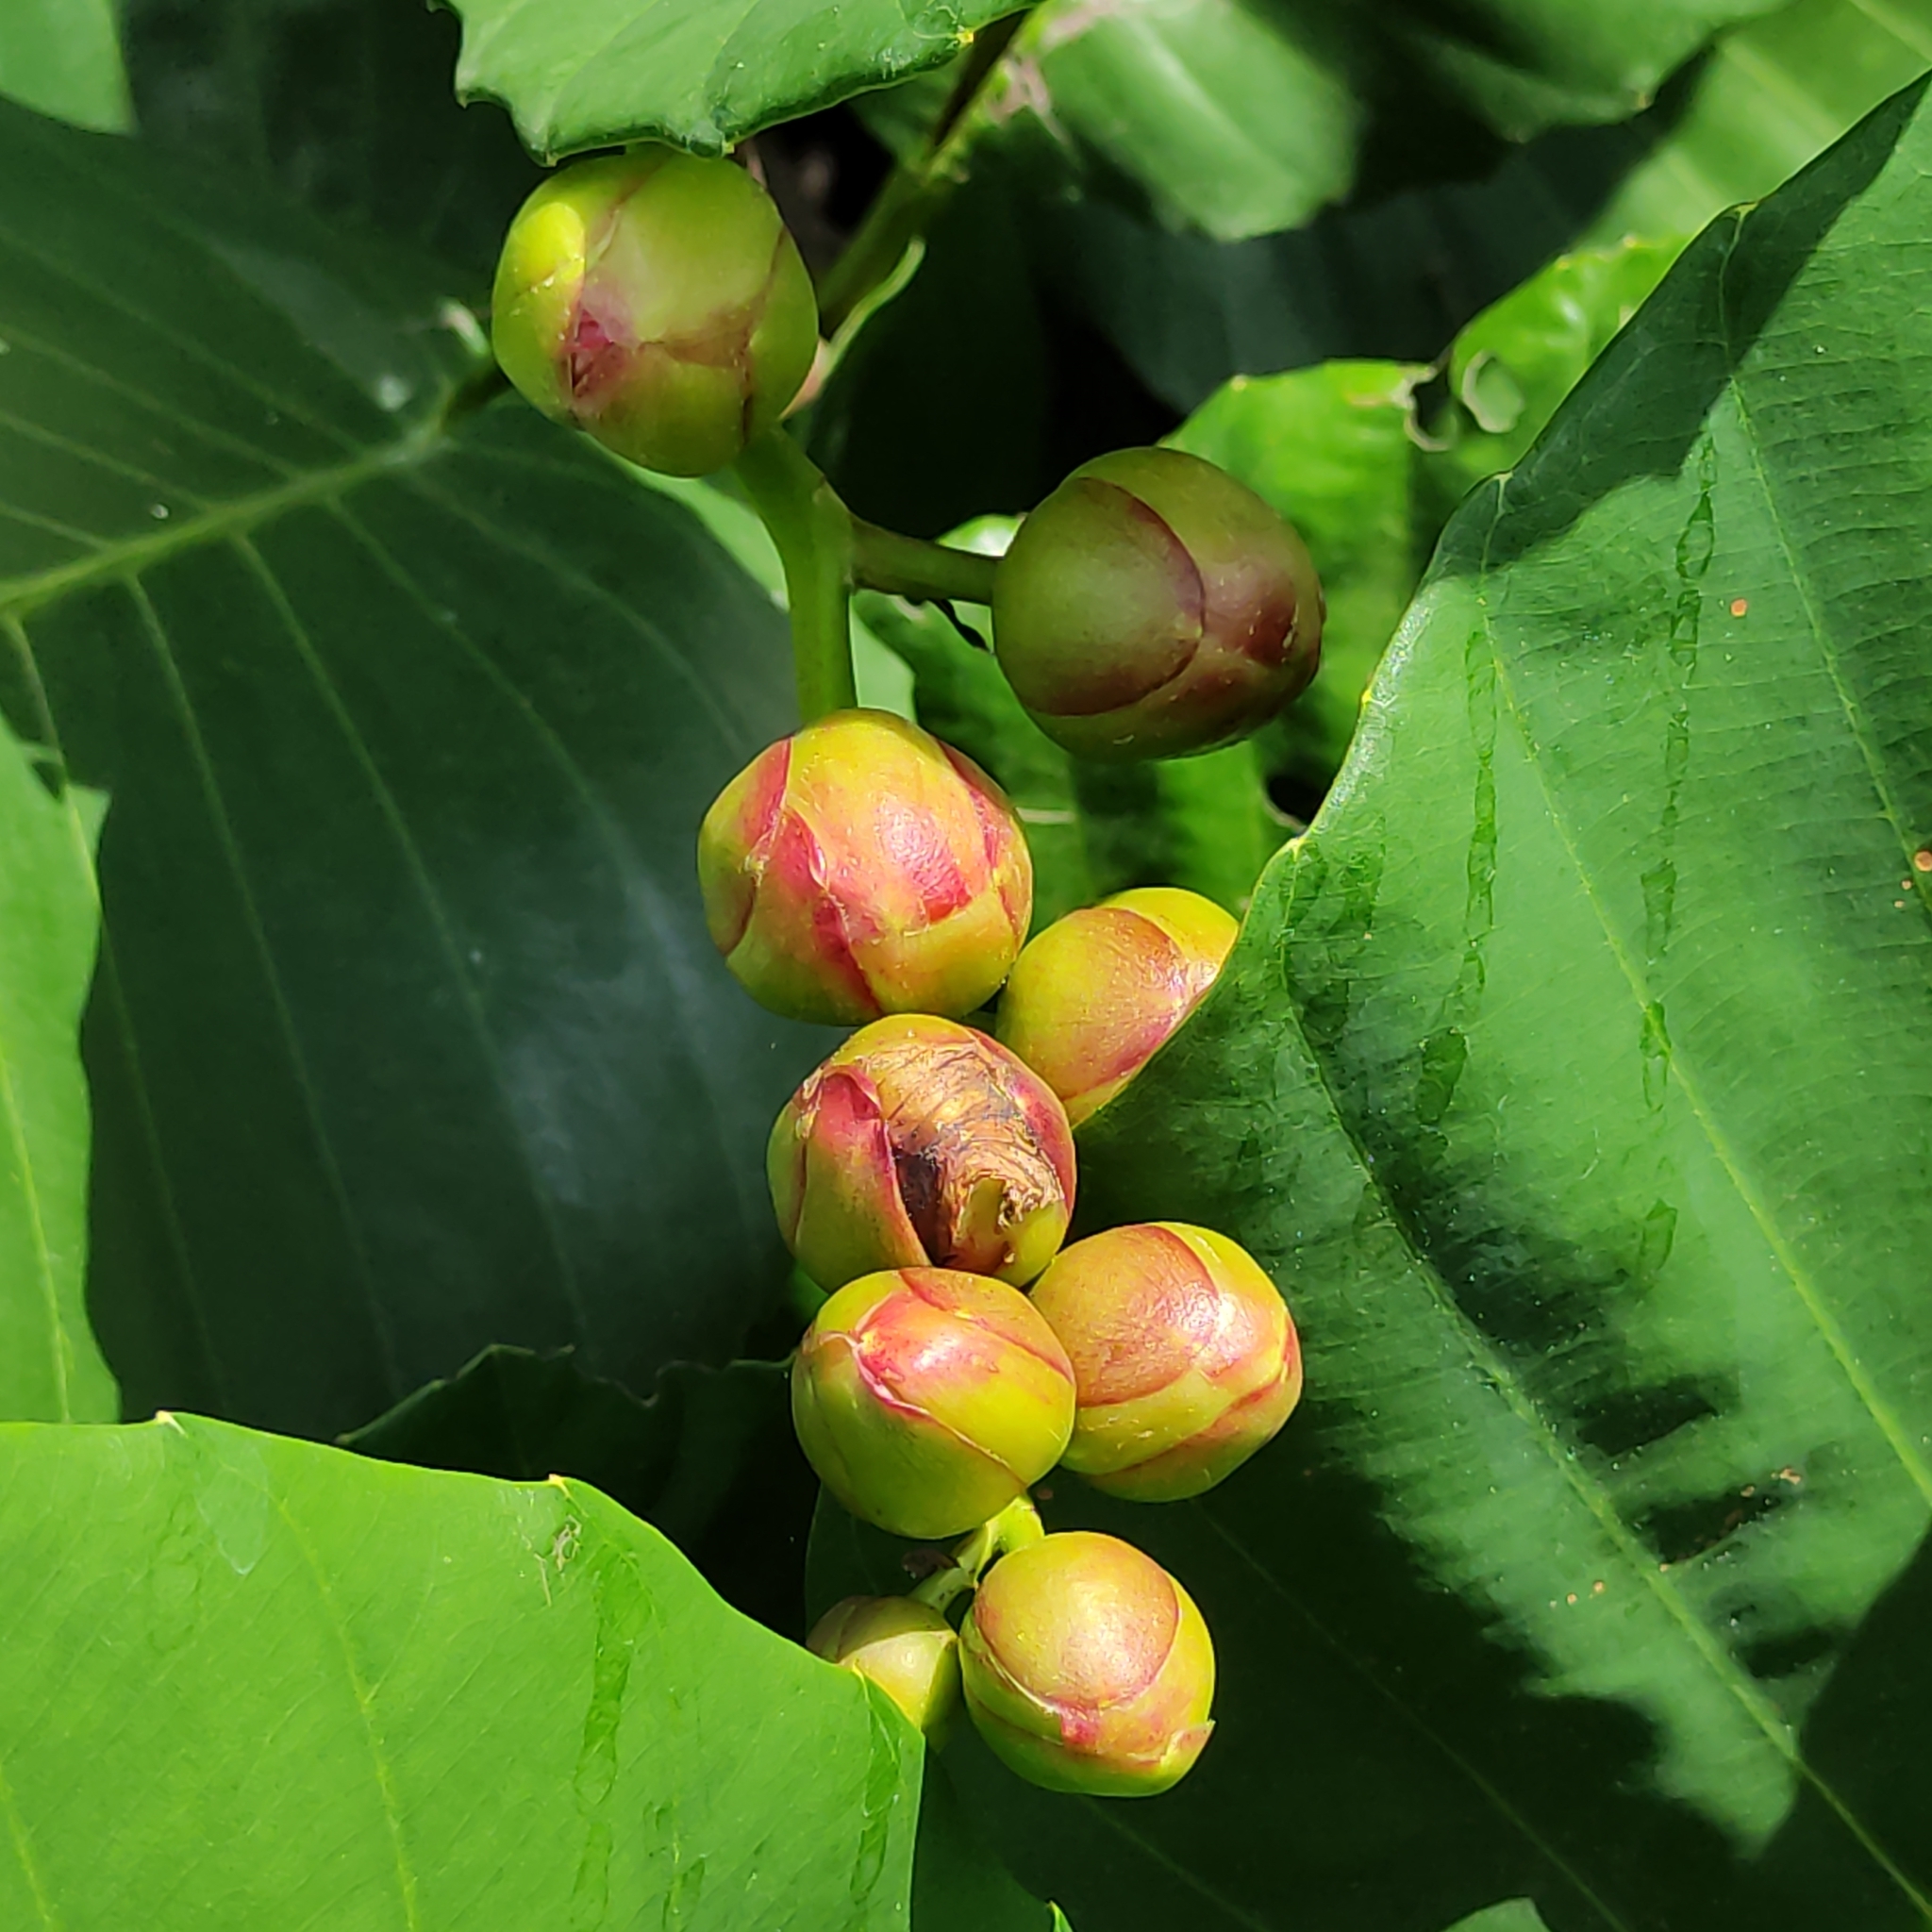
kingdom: Plantae
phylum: Tracheophyta
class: Magnoliopsida
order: Dilleniales
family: Dilleniaceae
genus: Dillenia
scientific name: Dillenia suffruticosa
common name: Shrubby dillenia
